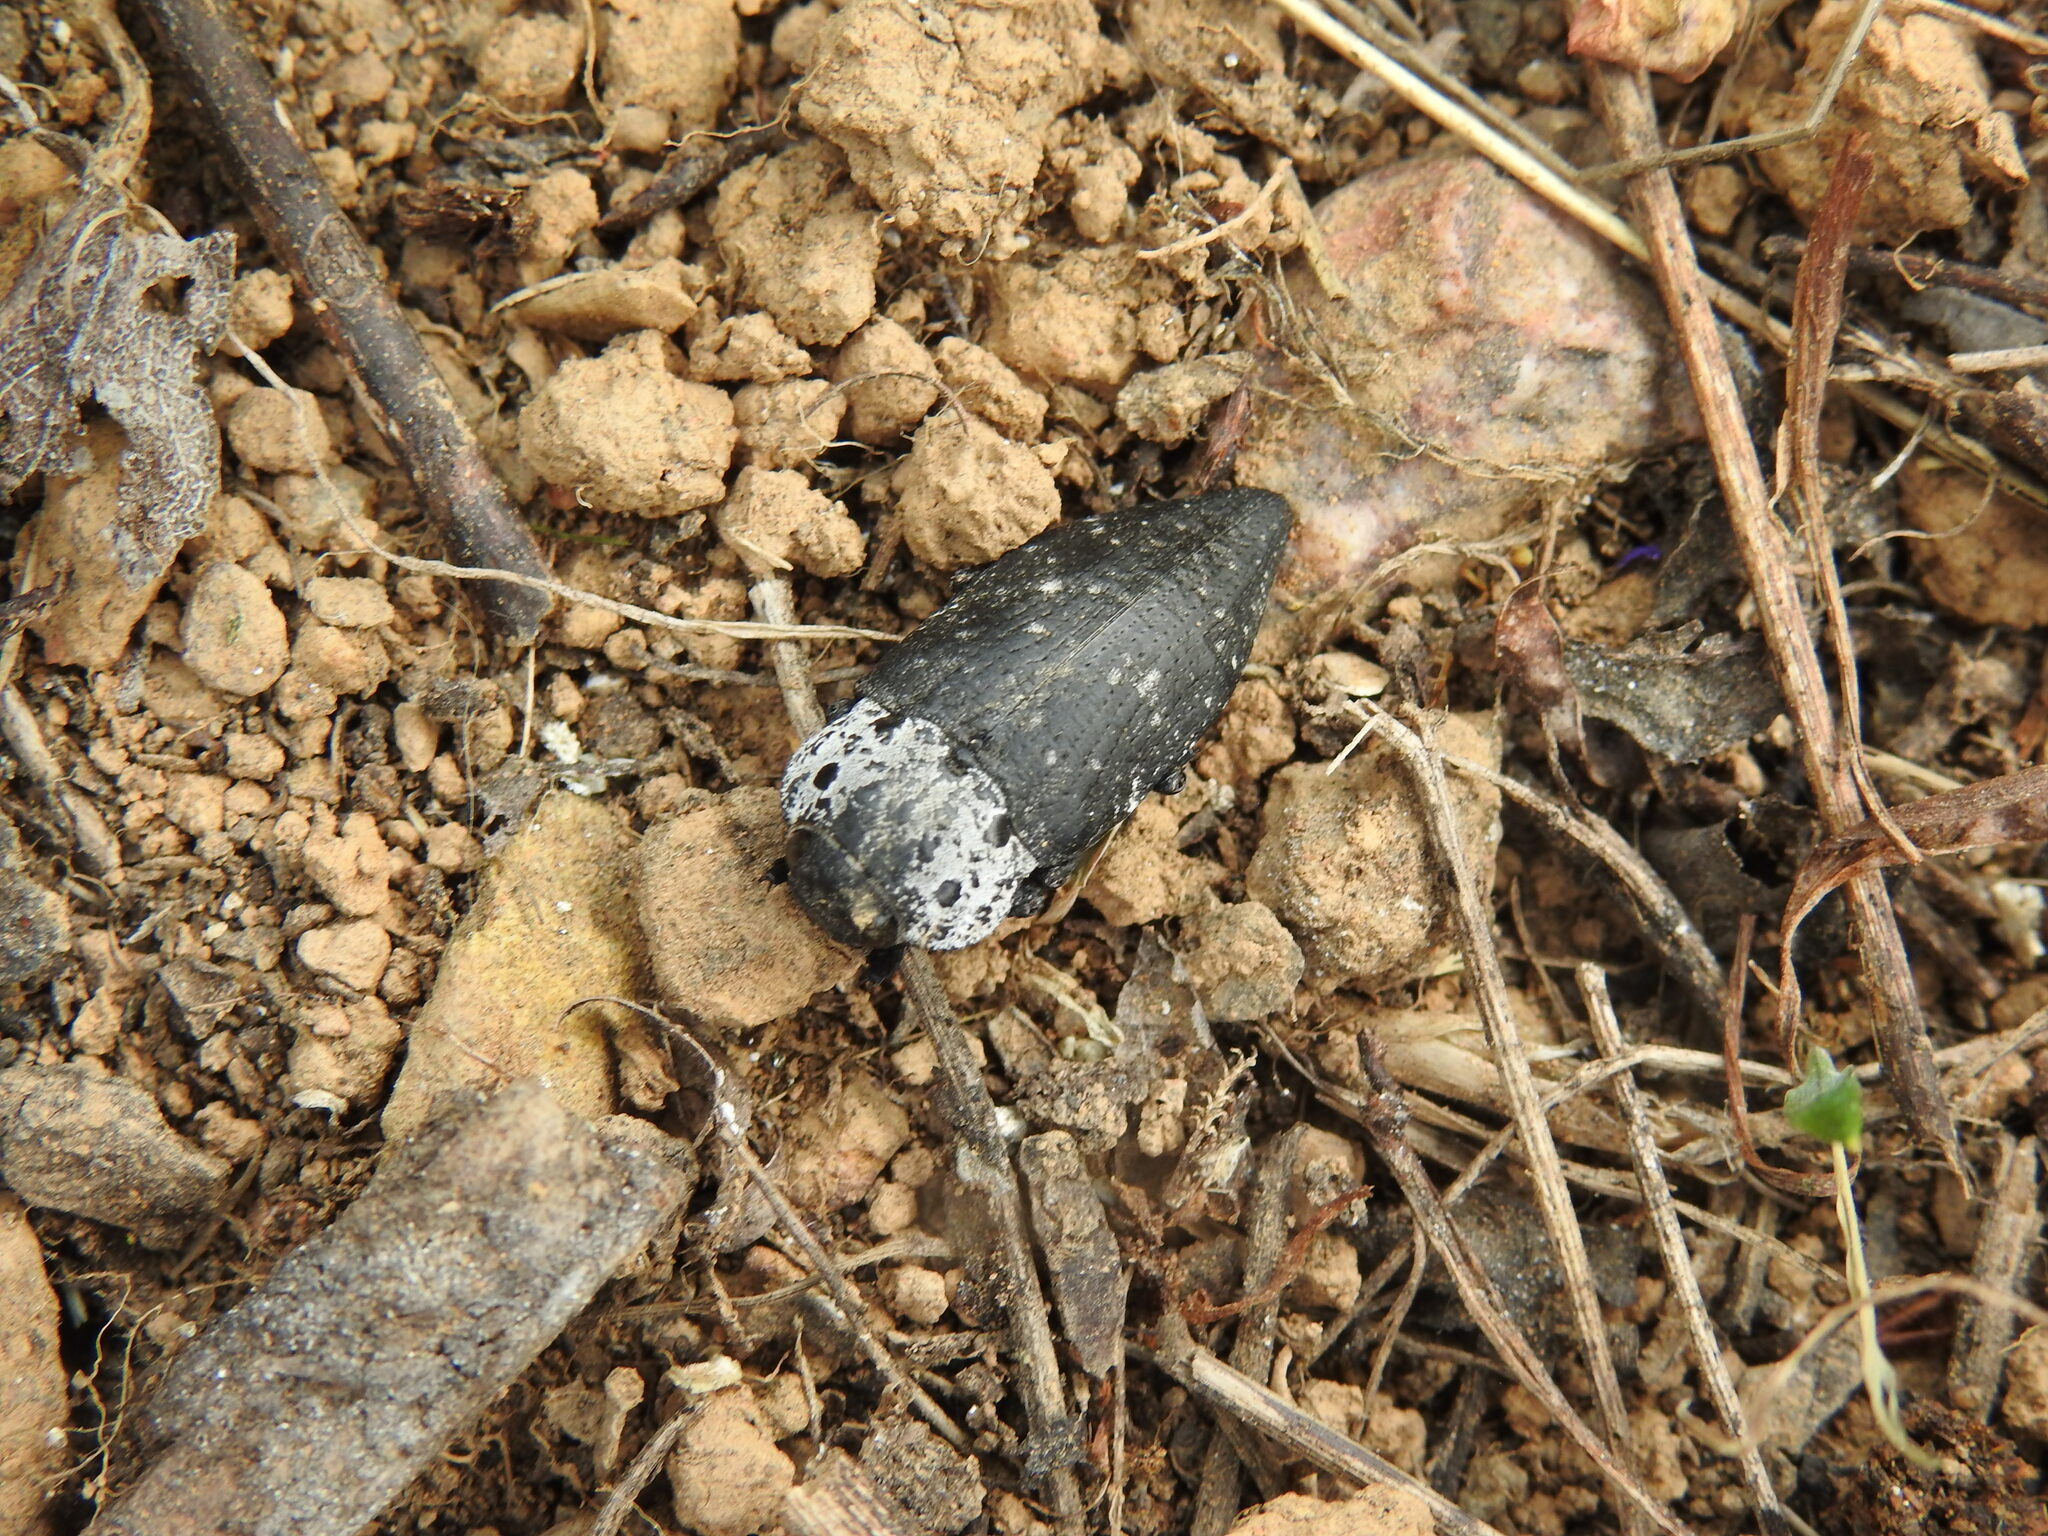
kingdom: Animalia
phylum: Arthropoda
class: Insecta
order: Coleoptera
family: Buprestidae
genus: Capnodis
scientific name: Capnodis tenebrionis
